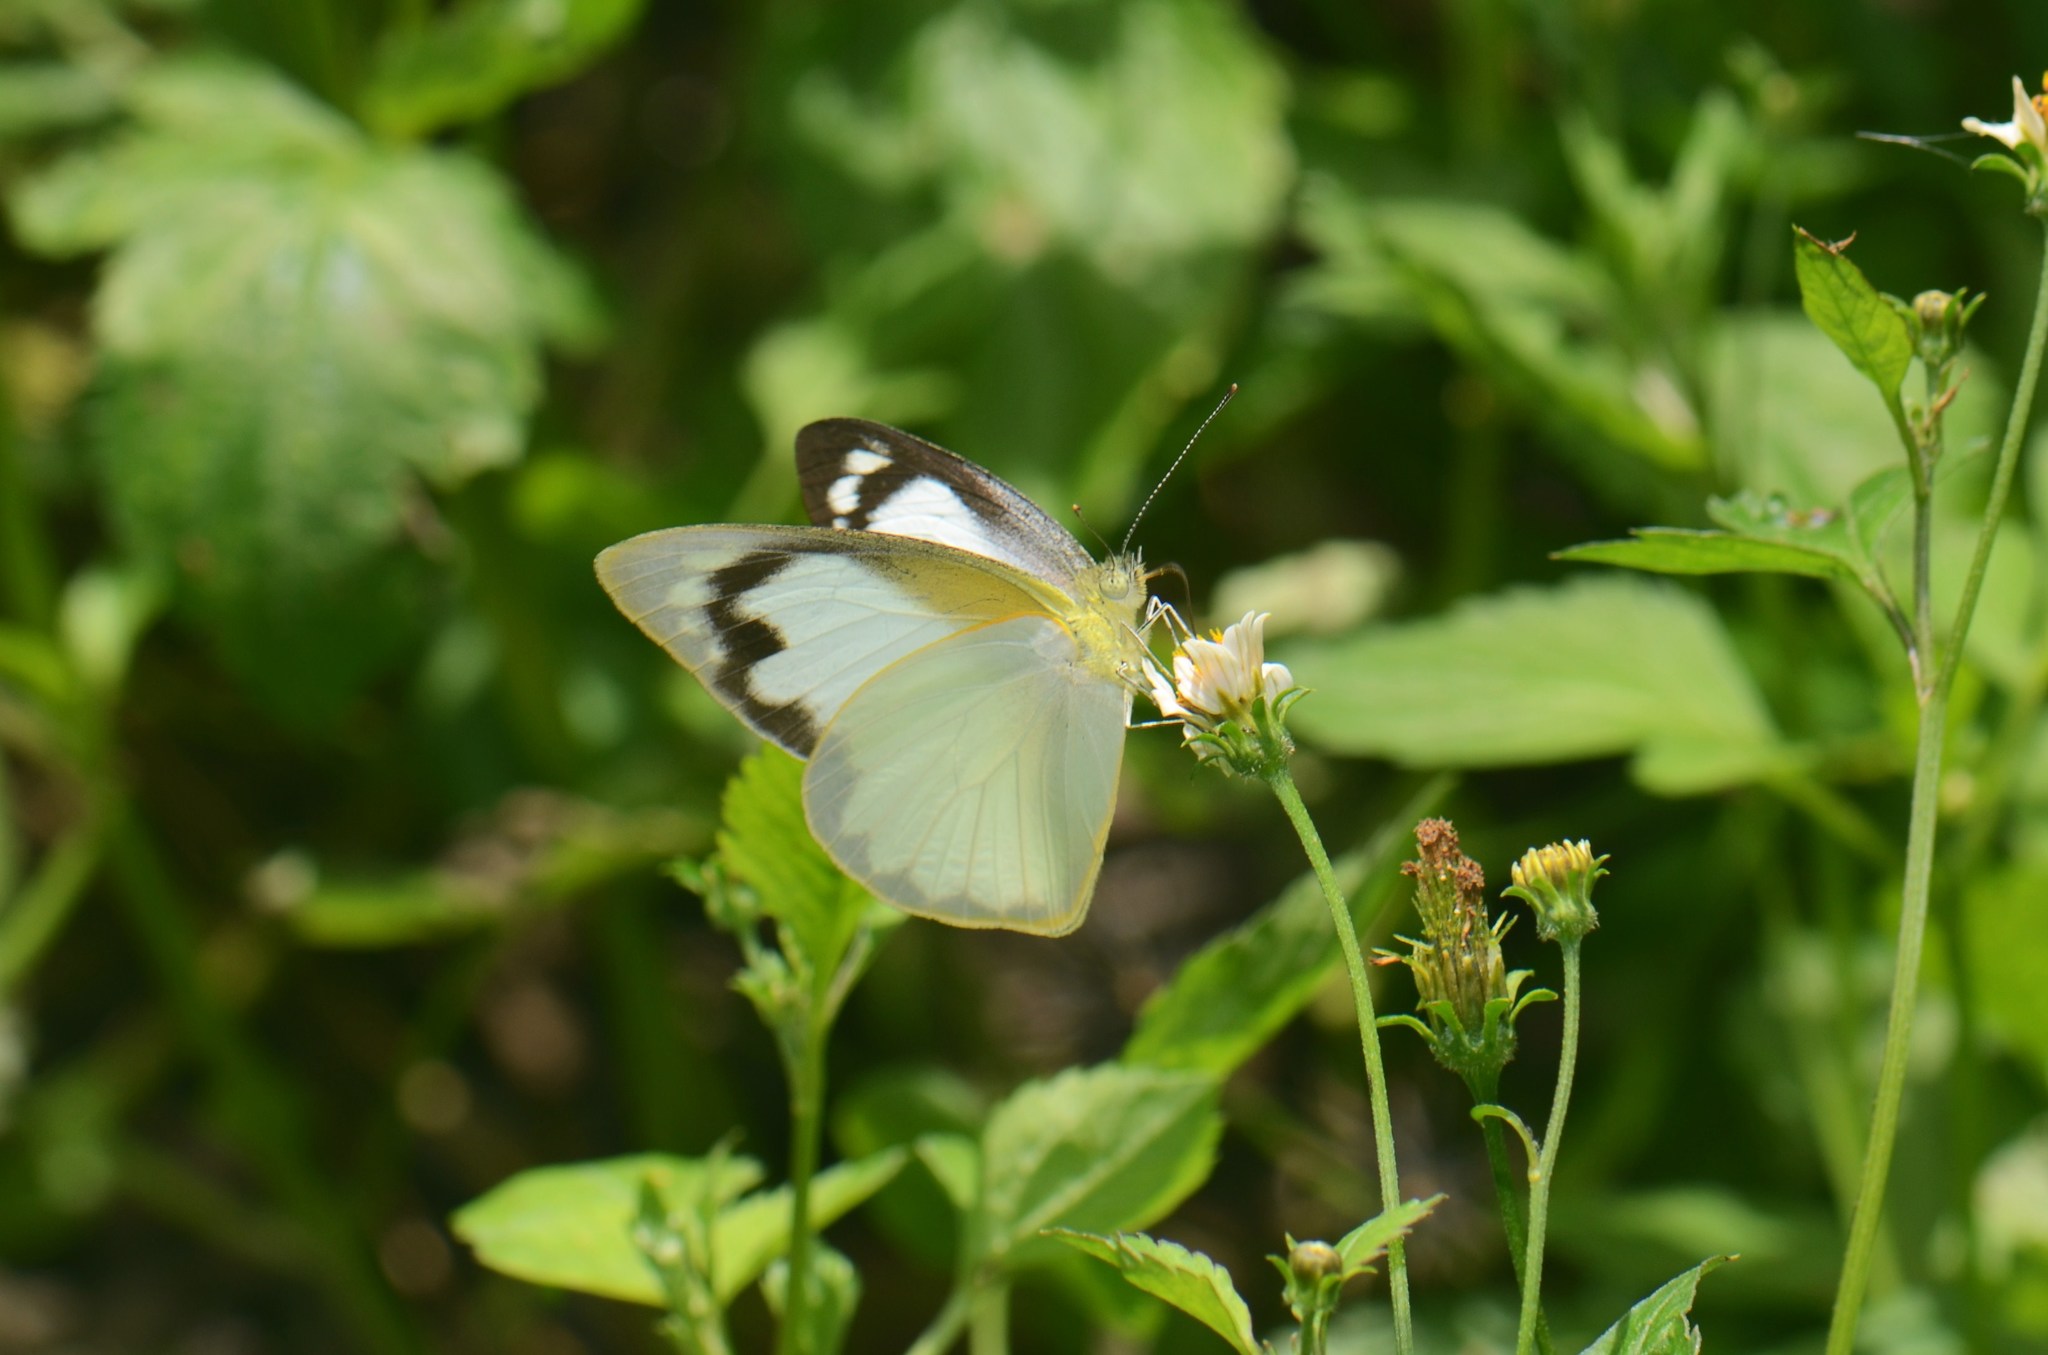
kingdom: Animalia
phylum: Arthropoda
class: Insecta
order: Lepidoptera
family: Pieridae
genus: Appias
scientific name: Appias albina
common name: Common albatross
